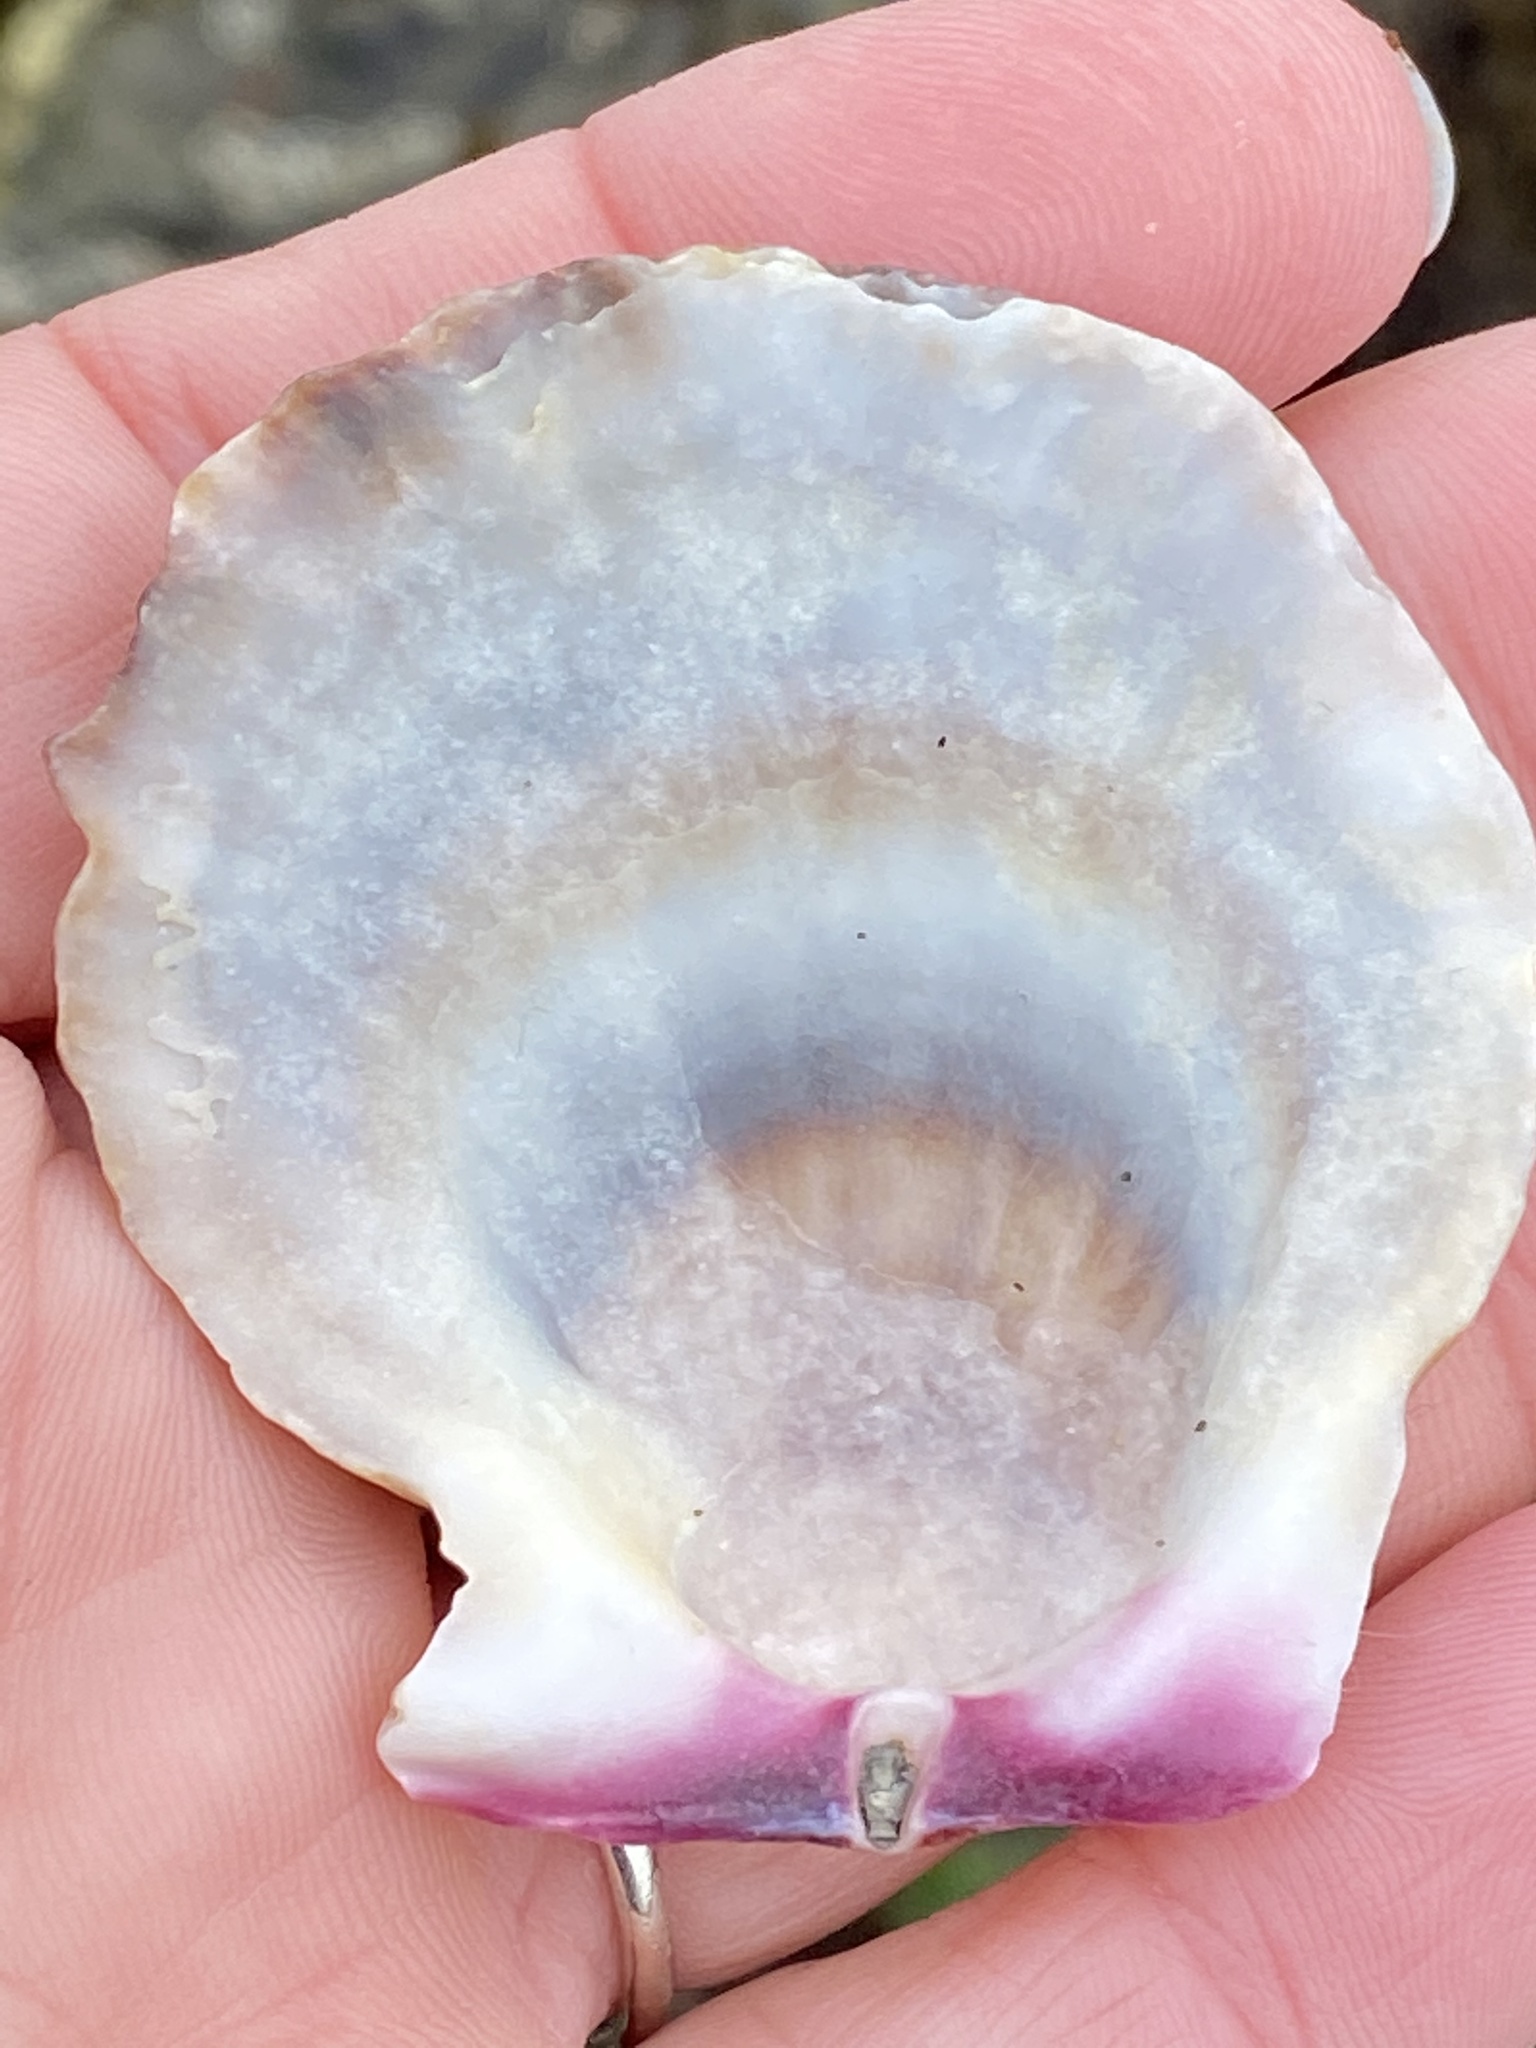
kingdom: Animalia
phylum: Mollusca
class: Bivalvia
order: Pectinida
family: Pectinidae
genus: Crassadoma
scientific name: Crassadoma gigantea
